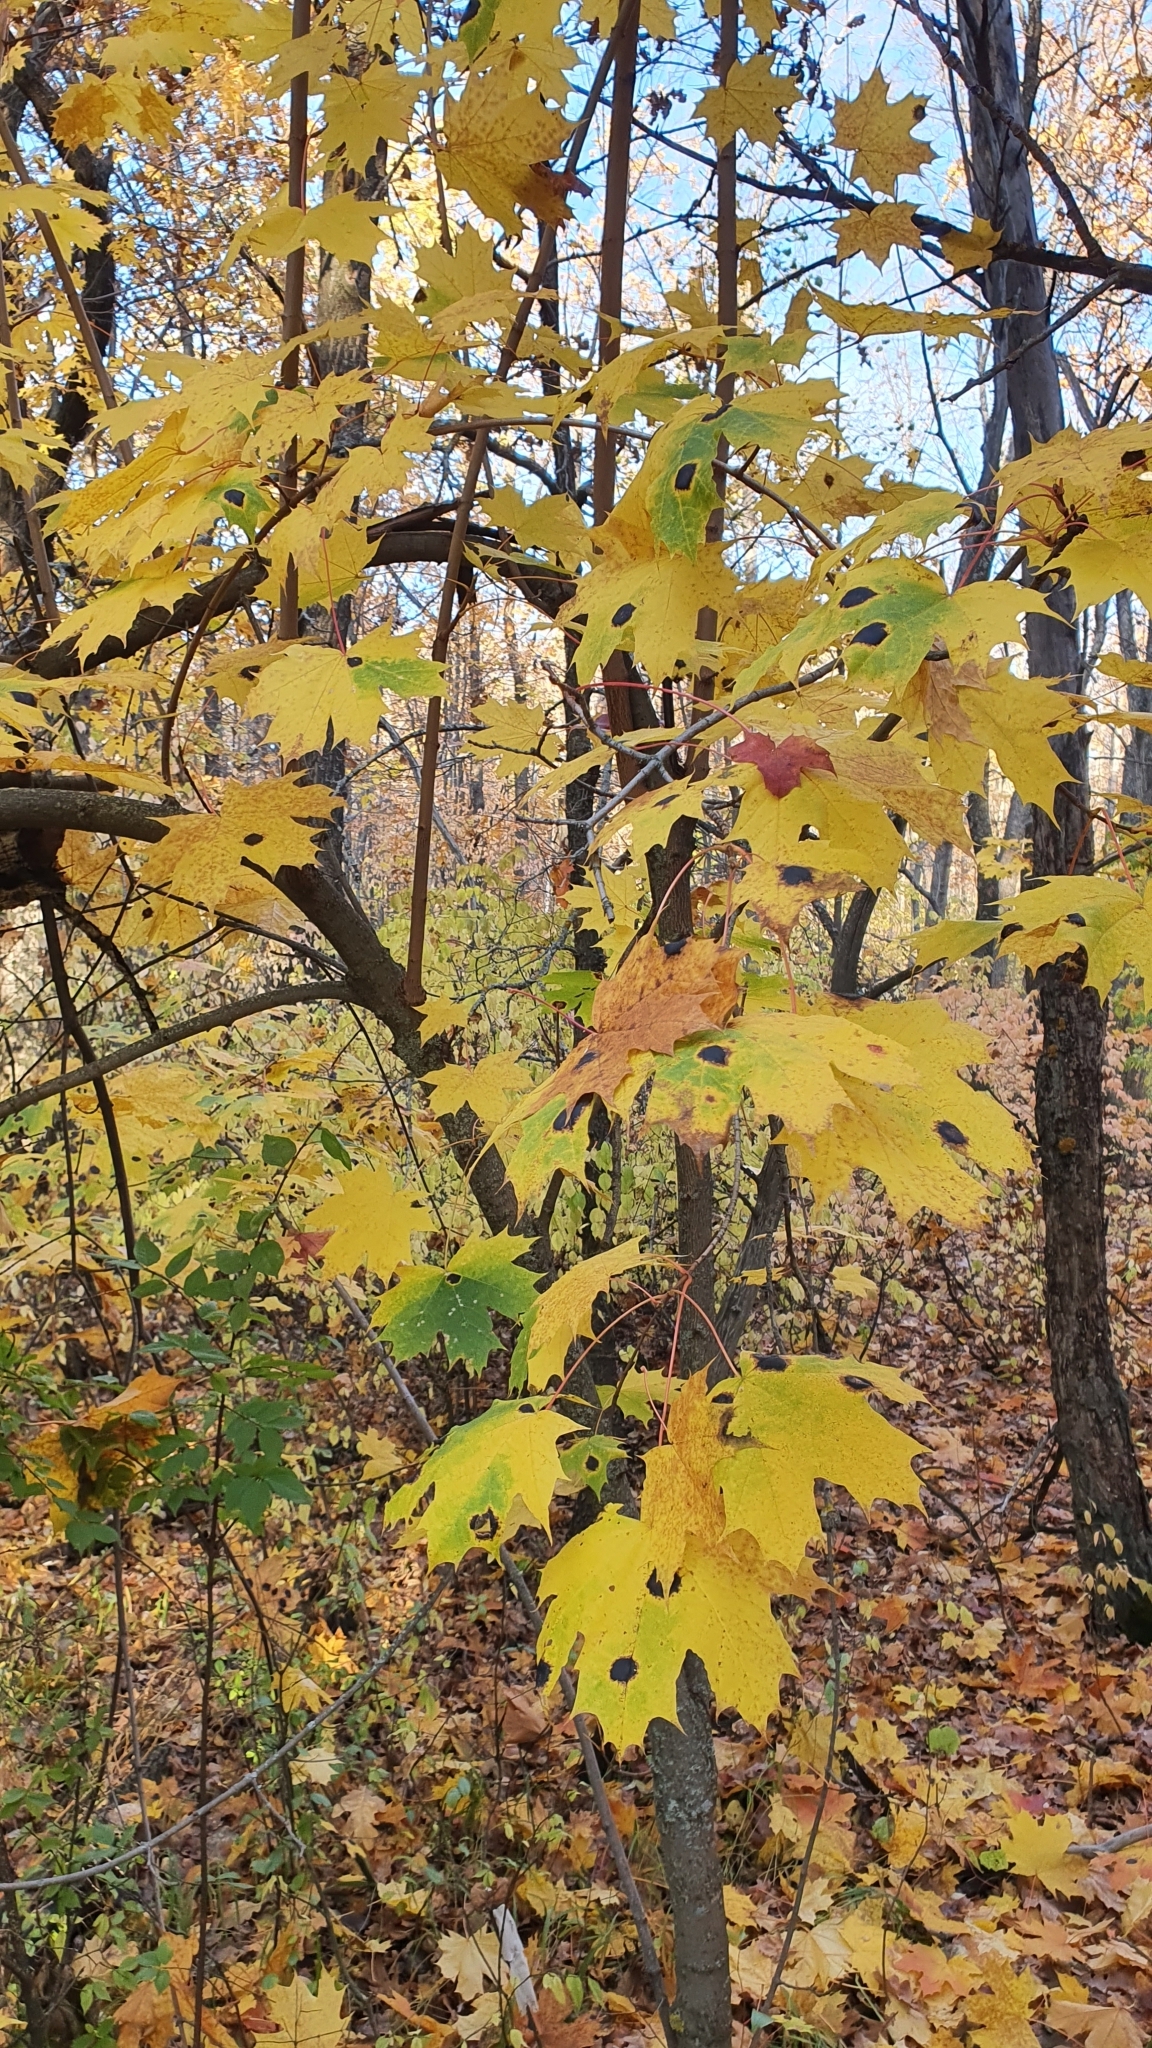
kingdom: Plantae
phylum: Tracheophyta
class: Magnoliopsida
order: Sapindales
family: Sapindaceae
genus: Acer
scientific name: Acer platanoides
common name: Norway maple
